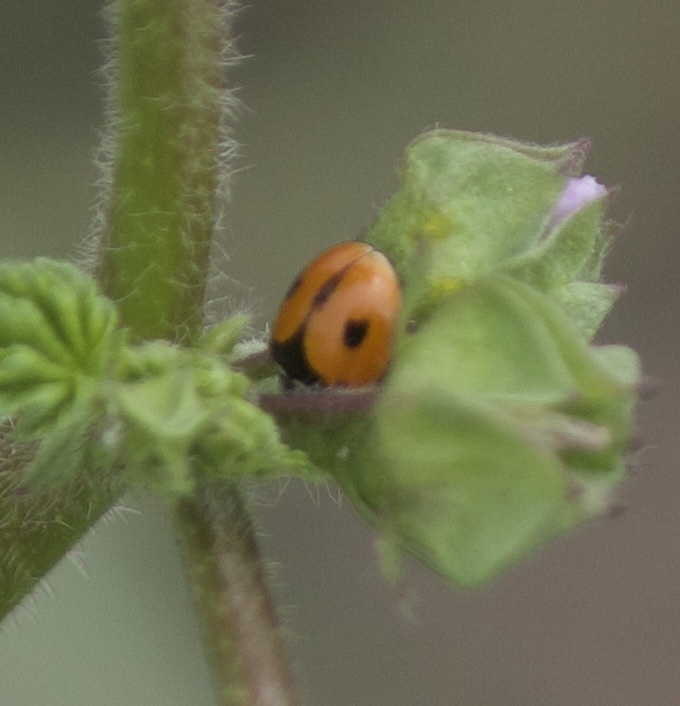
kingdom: Animalia
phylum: Arthropoda
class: Insecta
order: Coleoptera
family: Coccinellidae
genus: Adalia
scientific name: Adalia deficiens
